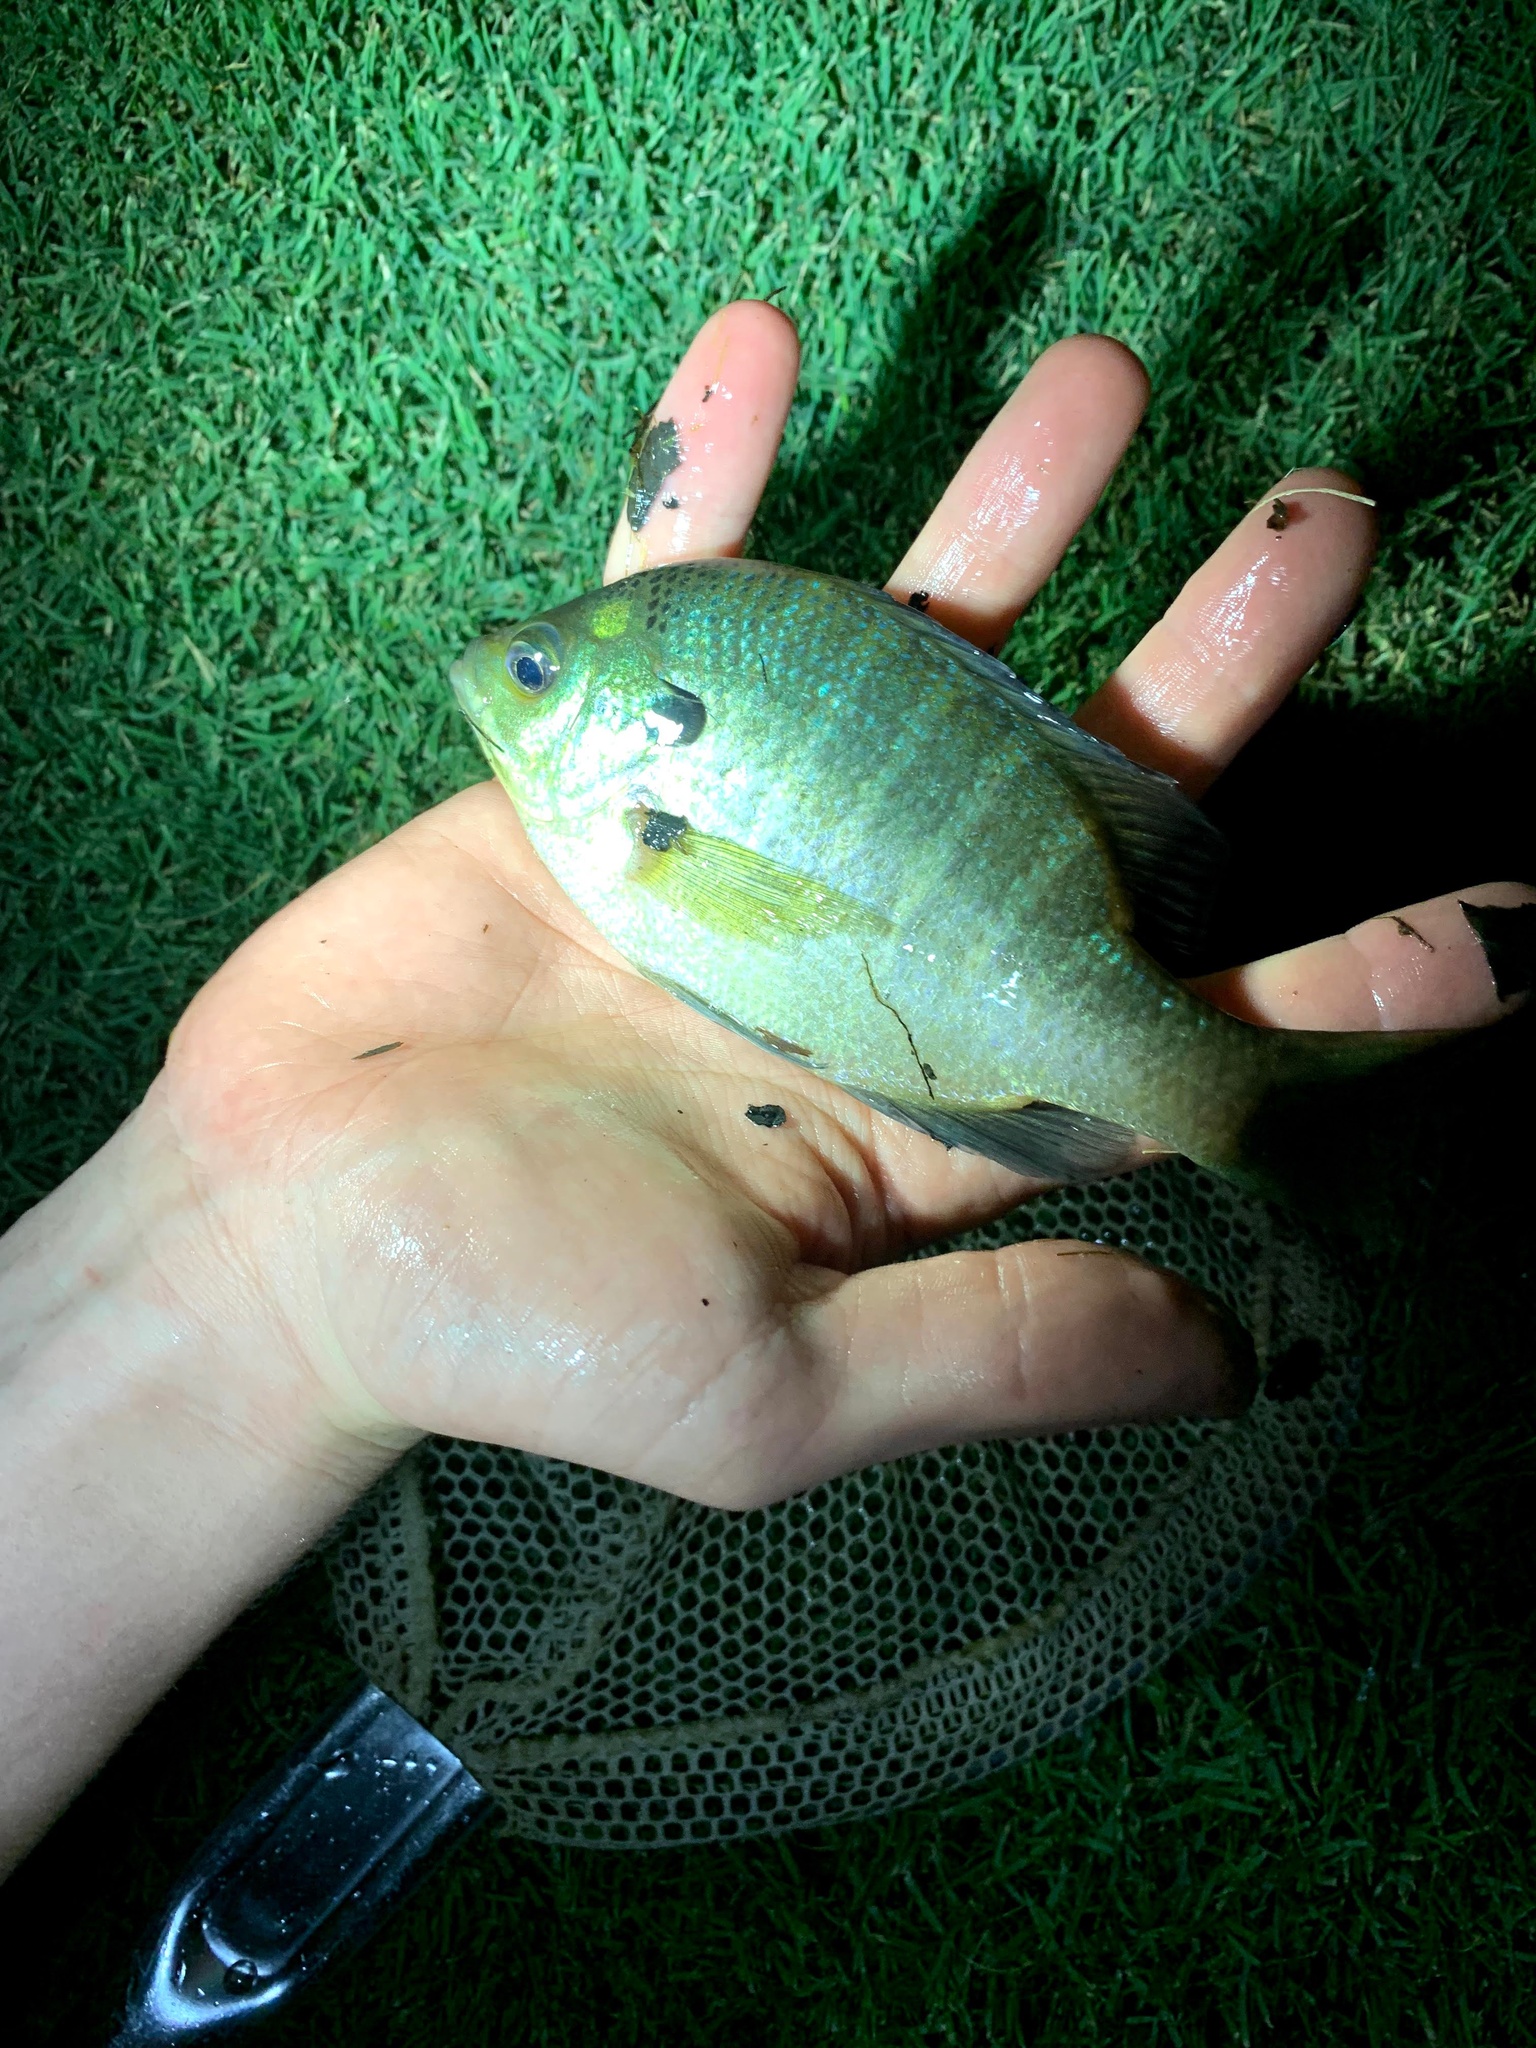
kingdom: Animalia
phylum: Chordata
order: Perciformes
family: Centrarchidae
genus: Lepomis
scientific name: Lepomis macrochirus
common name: Bluegill
